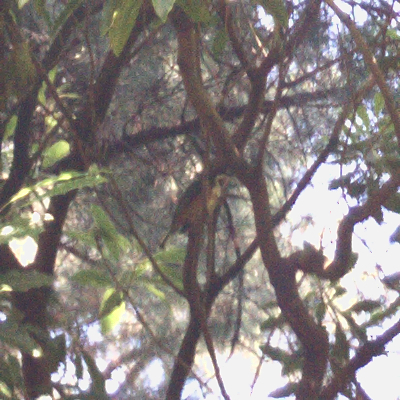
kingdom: Animalia
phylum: Chordata
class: Aves
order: Passeriformes
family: Meliphagidae
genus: Acanthorhynchus
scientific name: Acanthorhynchus tenuirostris
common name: Eastern spinebill
